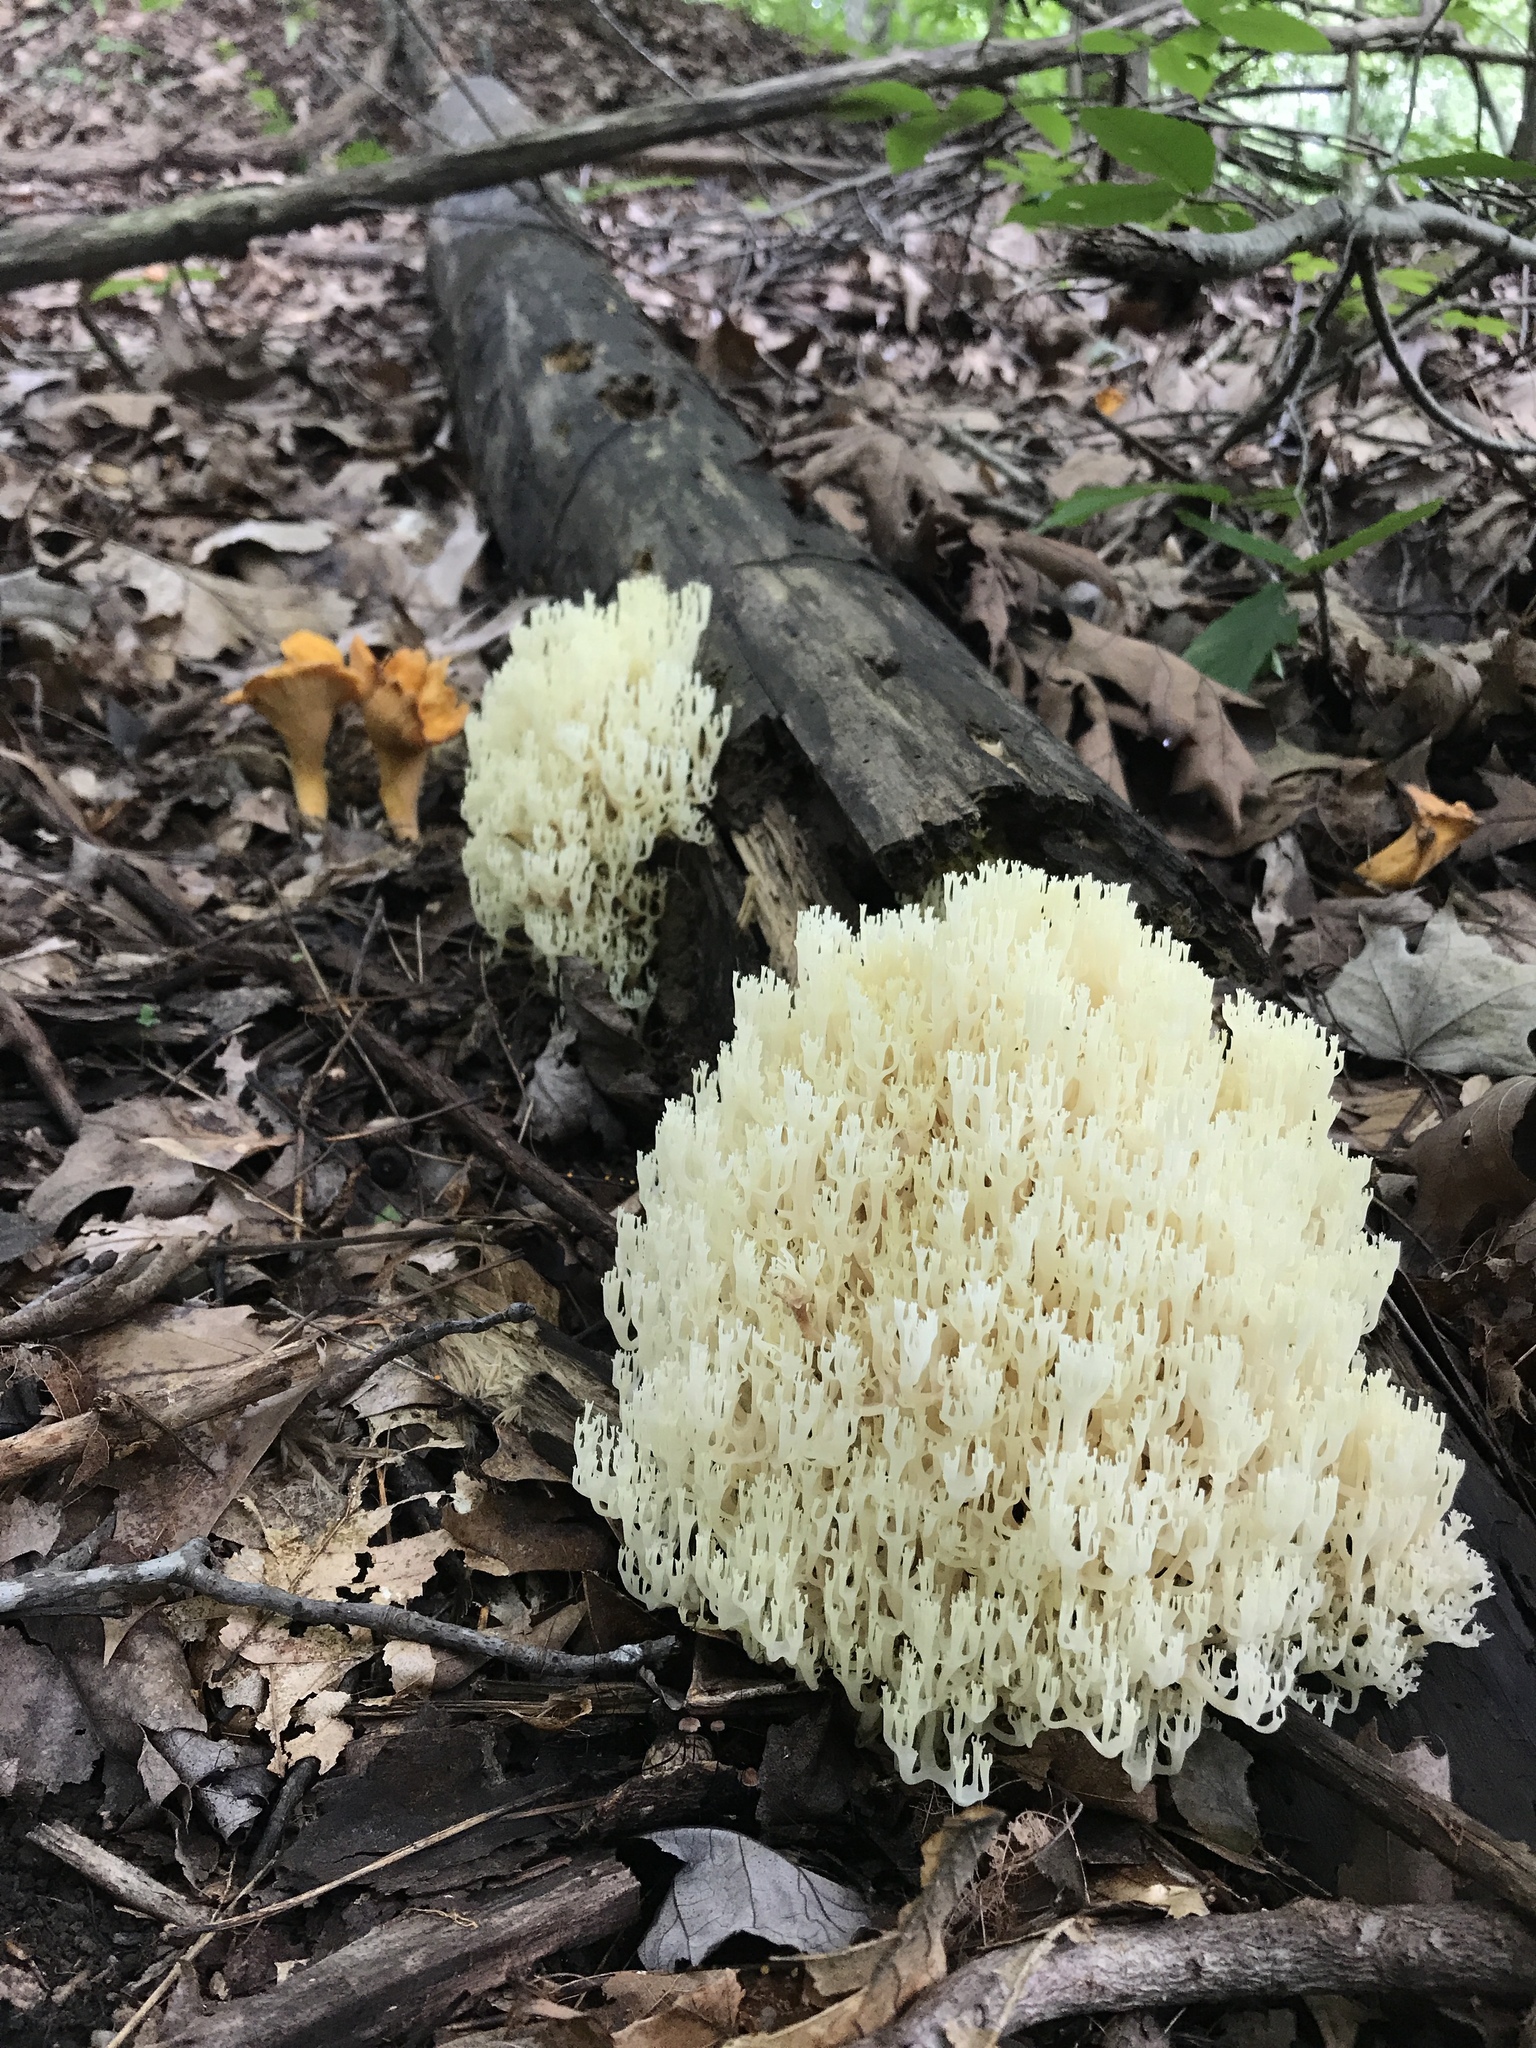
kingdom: Fungi
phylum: Basidiomycota
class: Agaricomycetes
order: Russulales
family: Auriscalpiaceae
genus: Artomyces
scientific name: Artomyces pyxidatus
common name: Crown-tipped coral fungus
